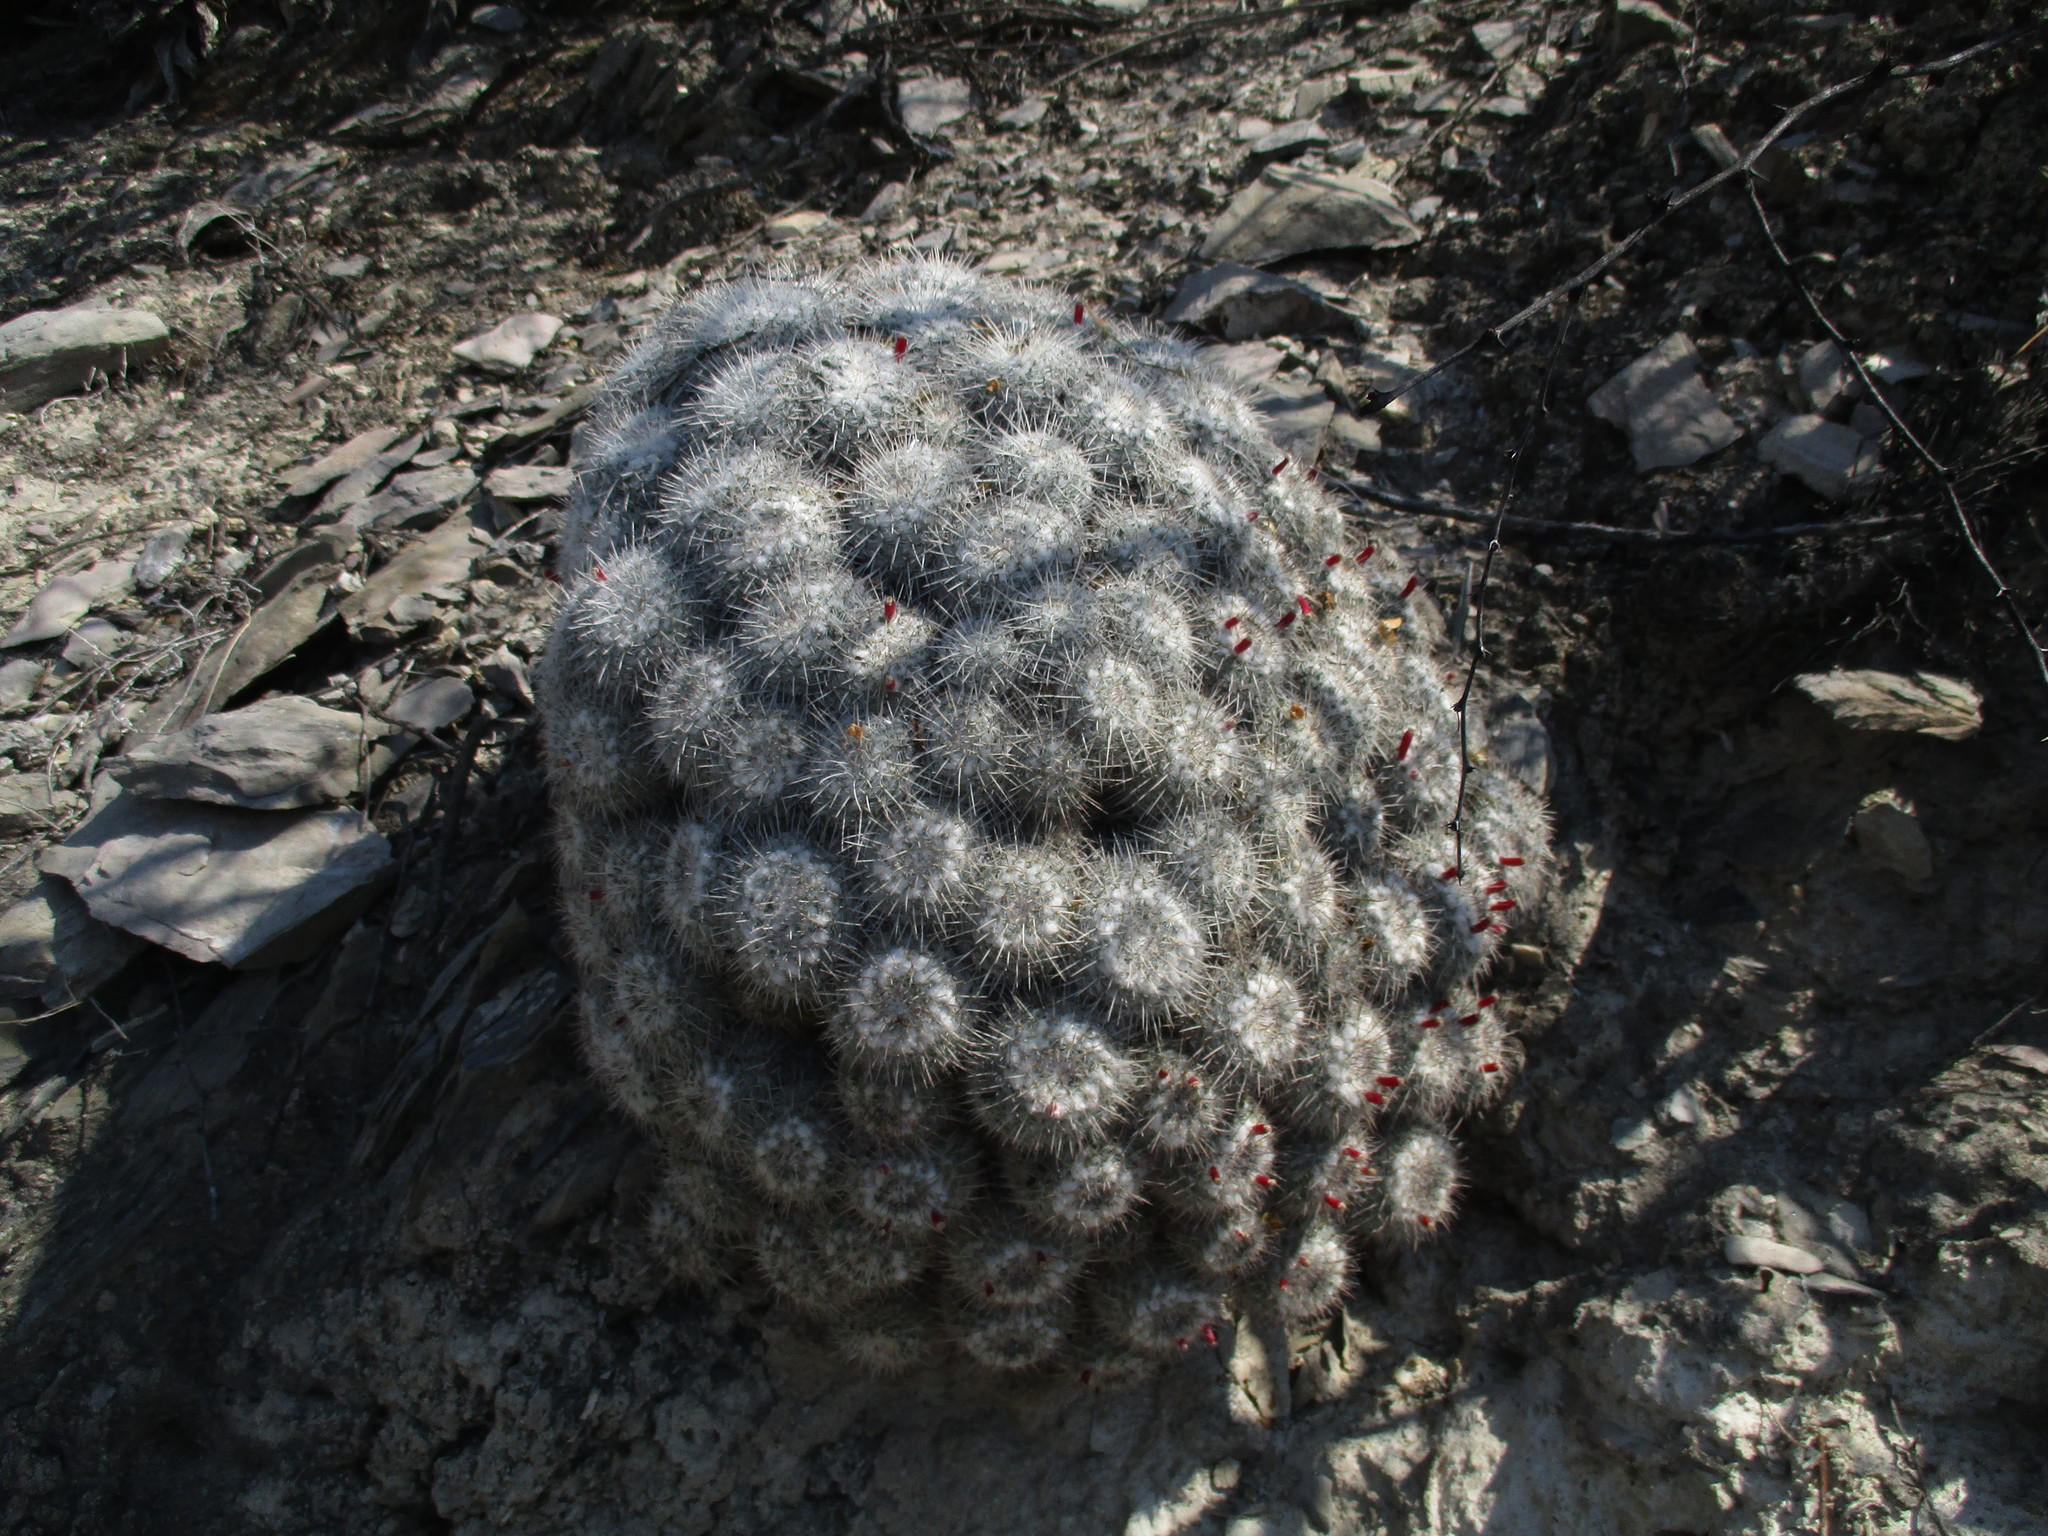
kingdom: Plantae
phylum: Tracheophyta
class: Magnoliopsida
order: Caryophyllales
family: Cactaceae
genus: Mammillaria
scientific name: Mammillaria parkinsonii
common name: Owl's-eye
